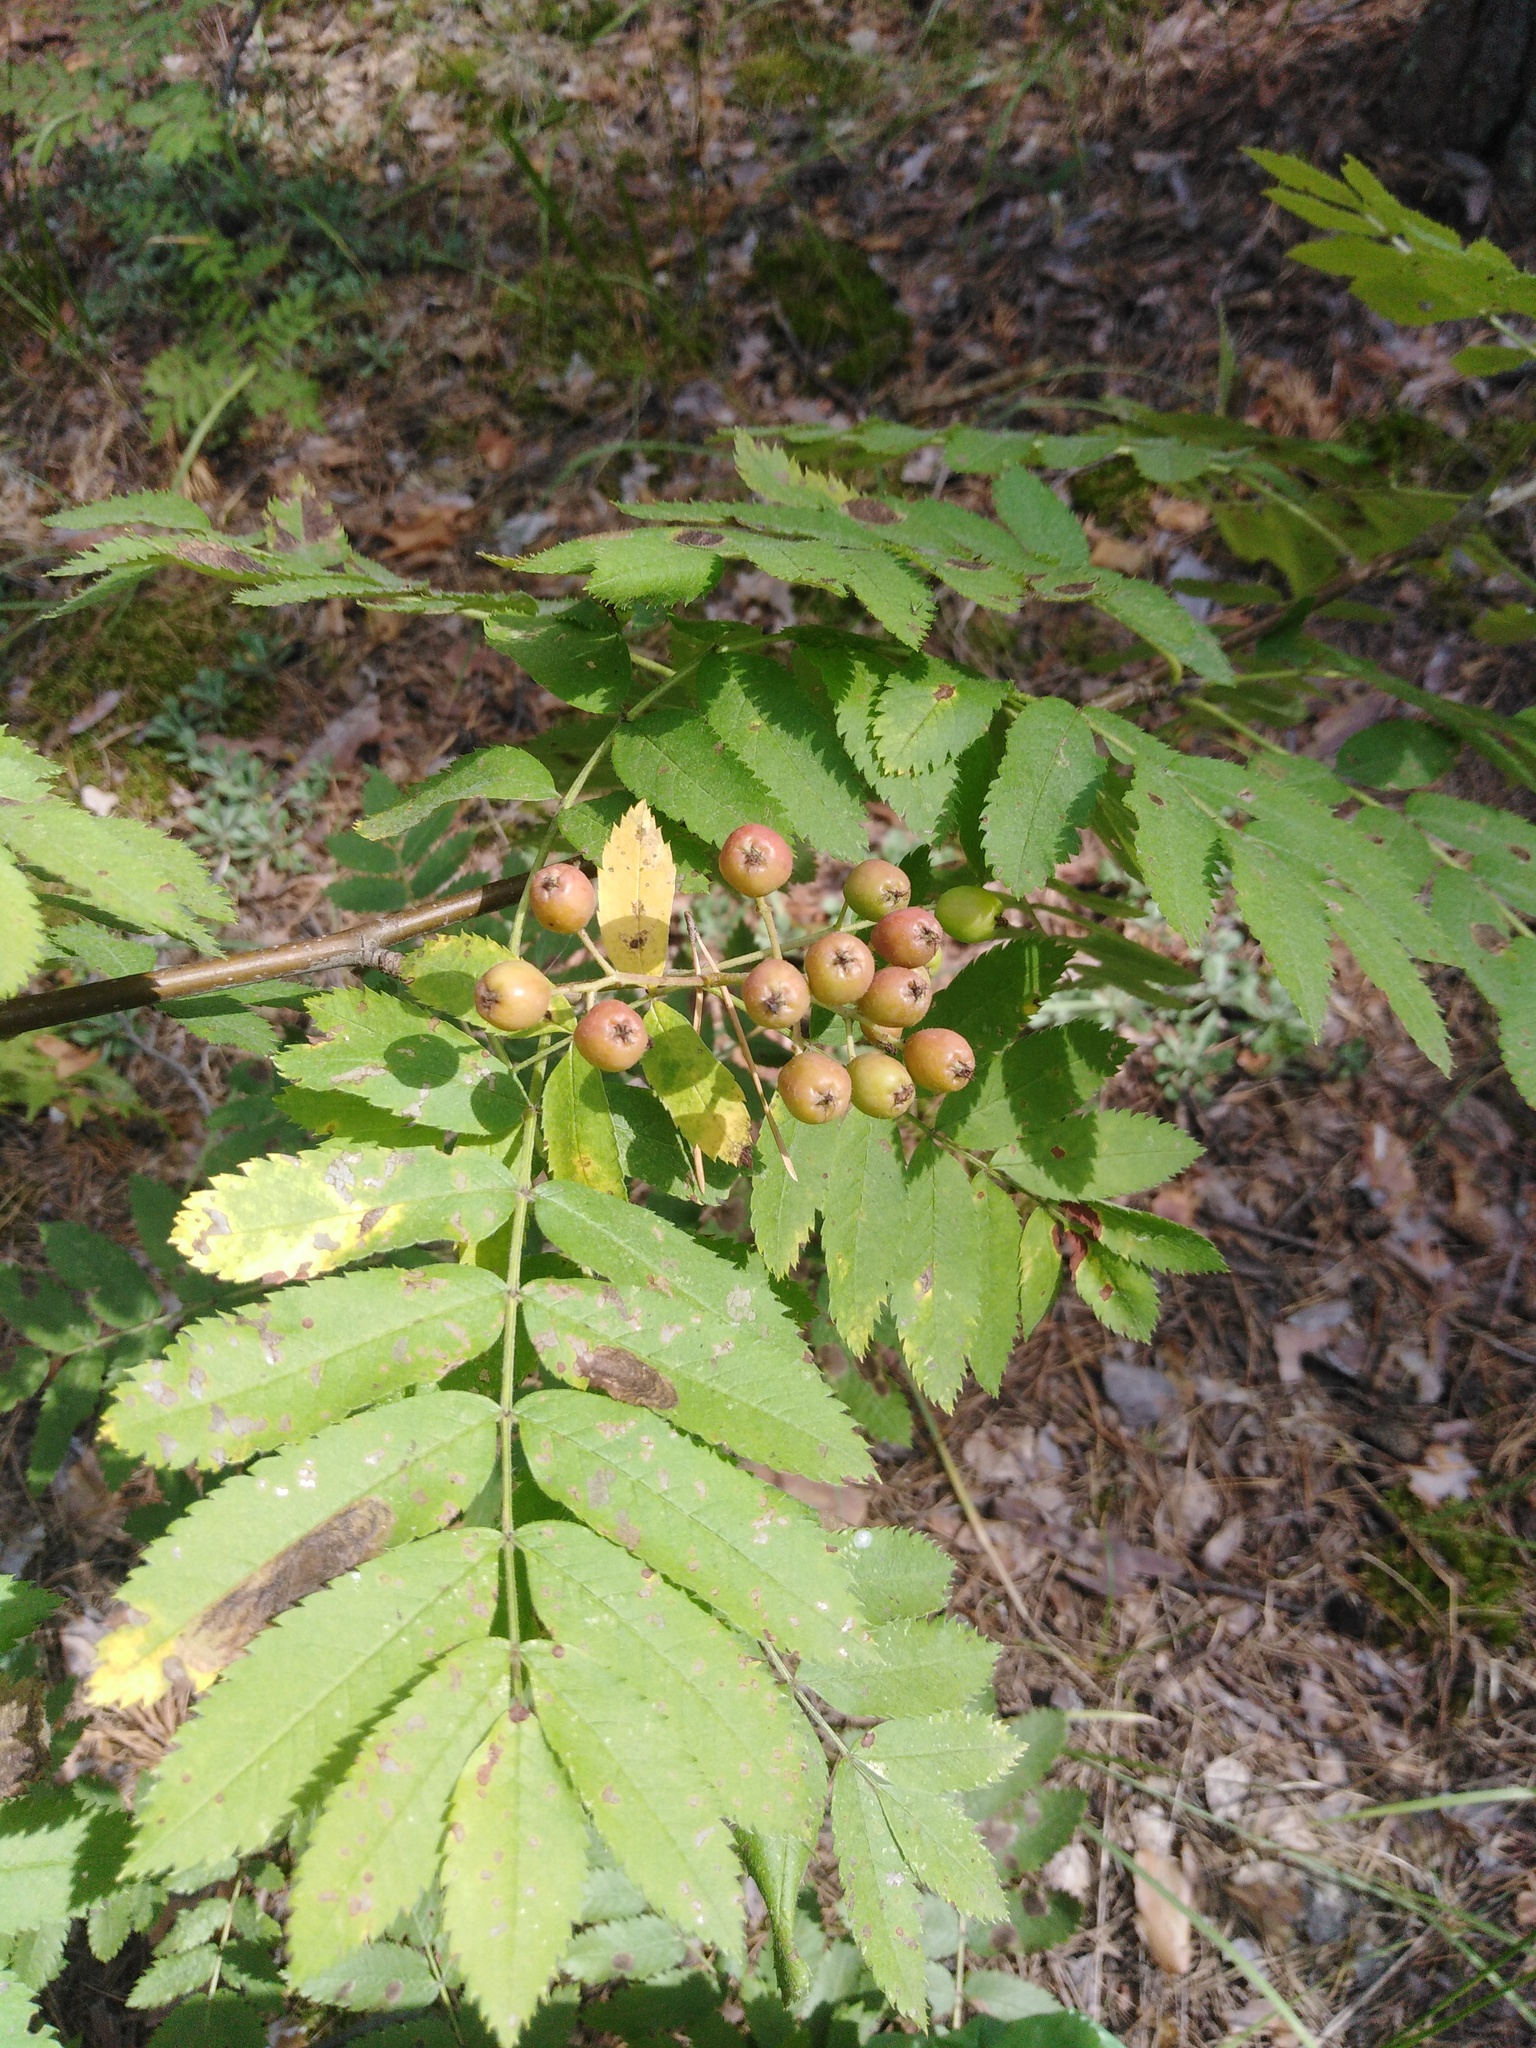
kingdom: Plantae
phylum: Tracheophyta
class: Magnoliopsida
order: Rosales
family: Rosaceae
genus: Sorbus
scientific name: Sorbus aucuparia
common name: Rowan
